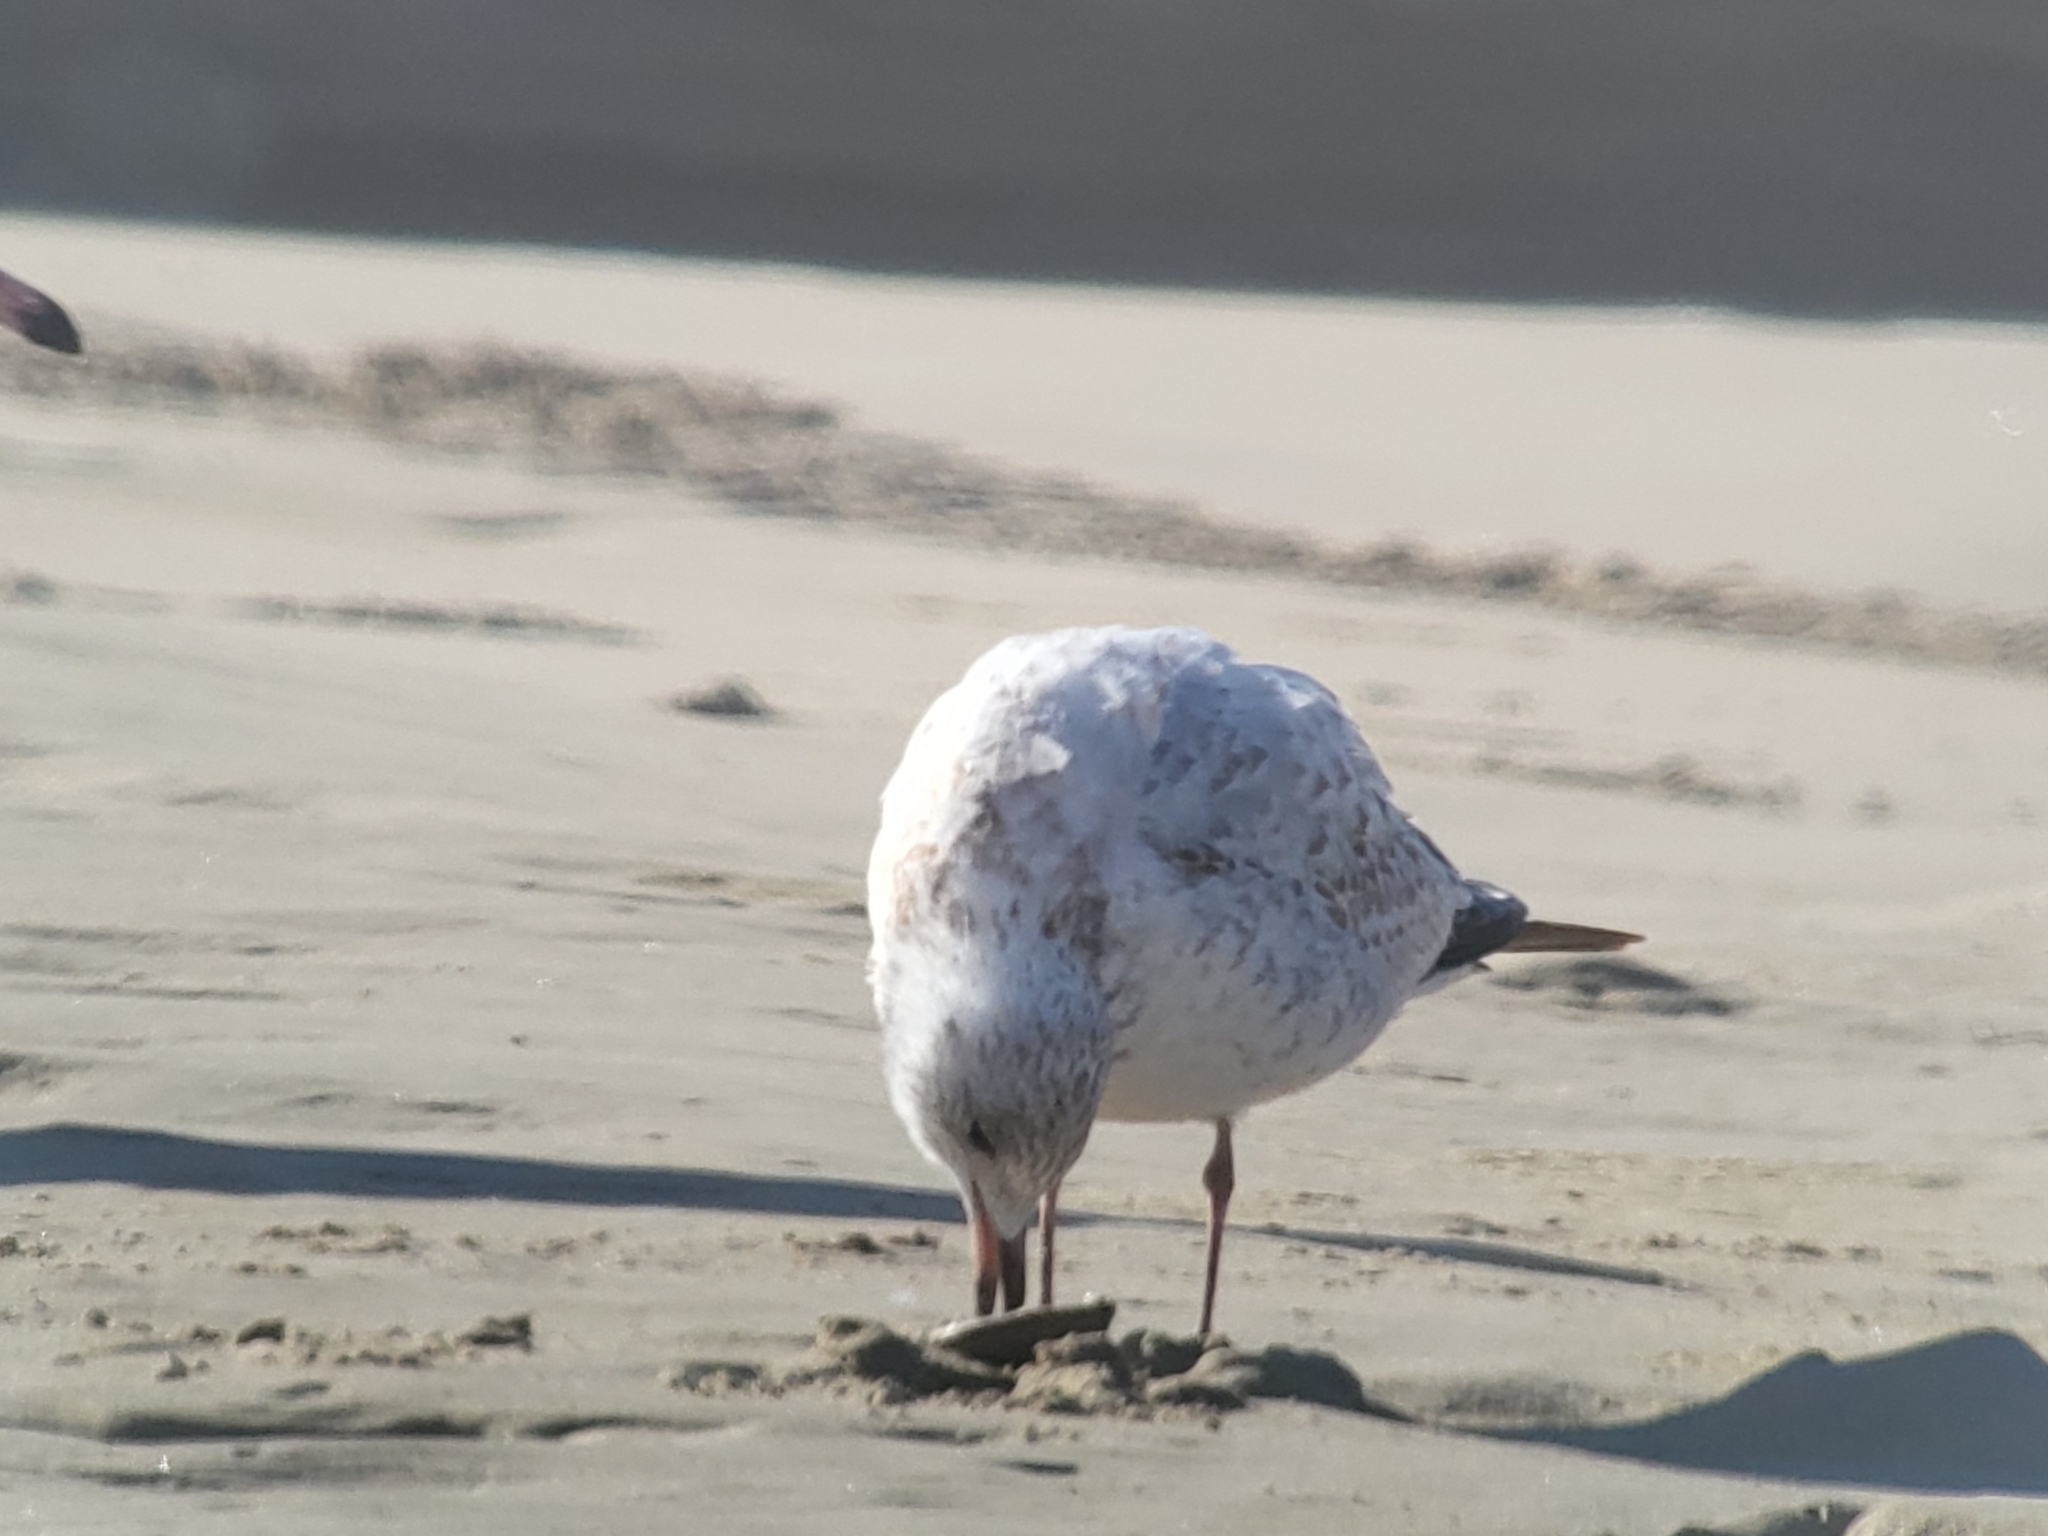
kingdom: Animalia
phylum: Chordata
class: Aves
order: Charadriiformes
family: Laridae
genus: Larus
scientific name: Larus delawarensis
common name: Ring-billed gull
